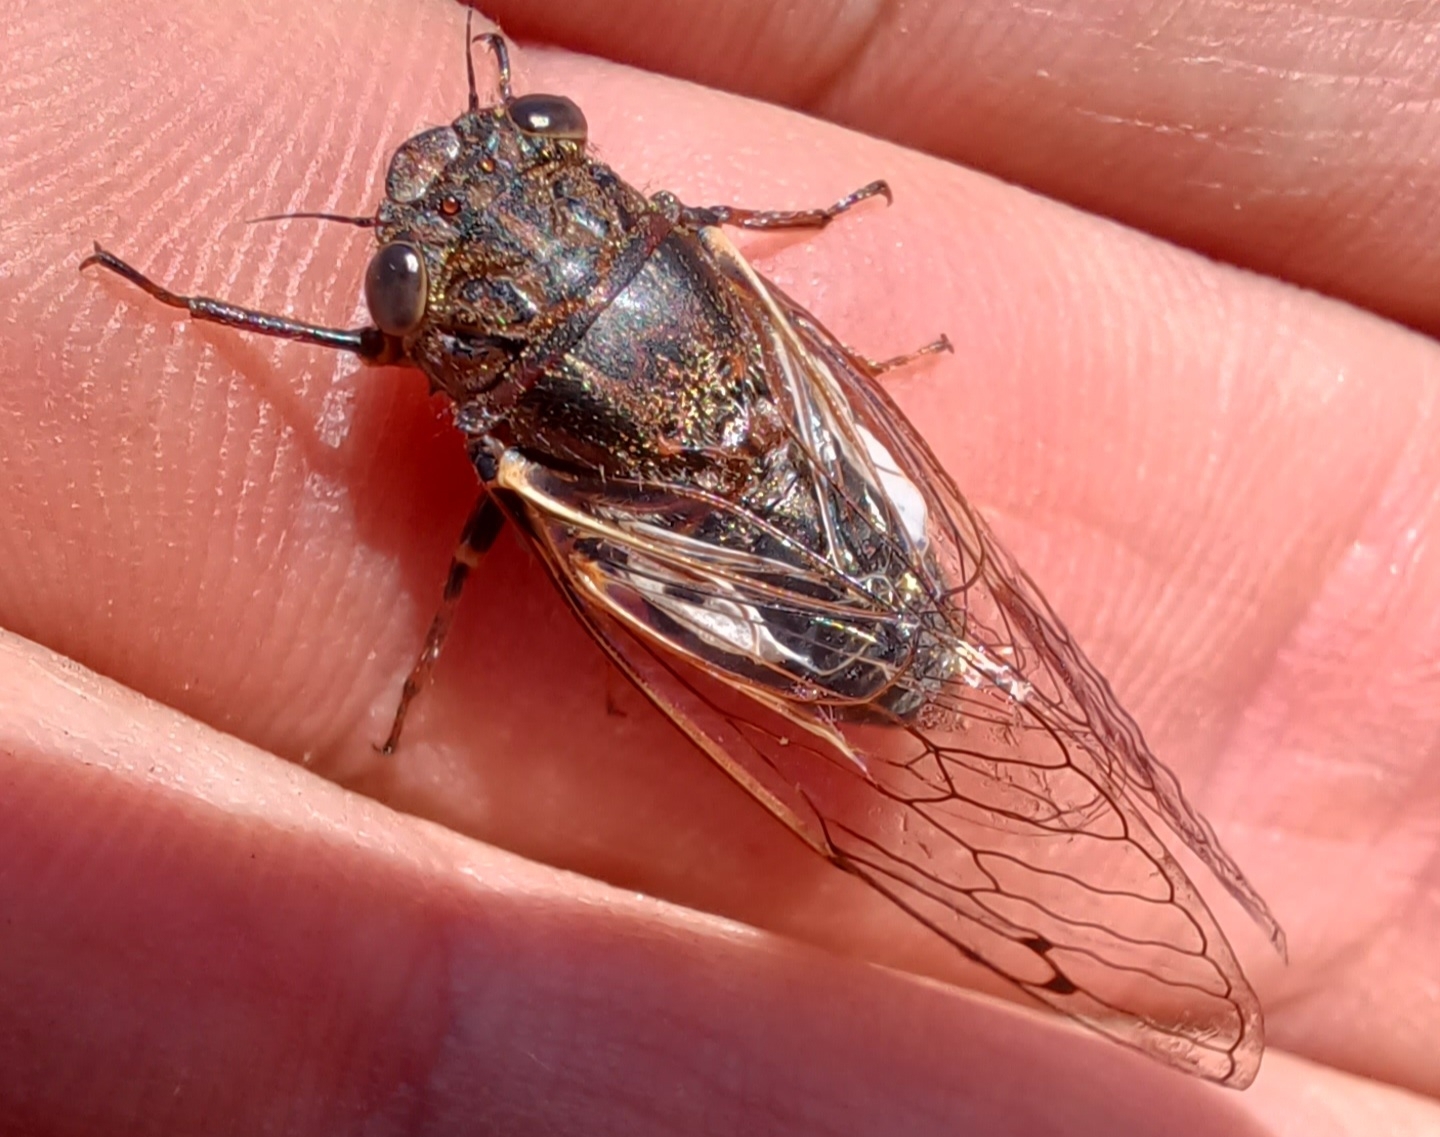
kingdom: Animalia
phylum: Arthropoda
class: Insecta
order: Hemiptera
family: Cicadidae
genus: Gelidea
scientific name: Gelidea torrida
